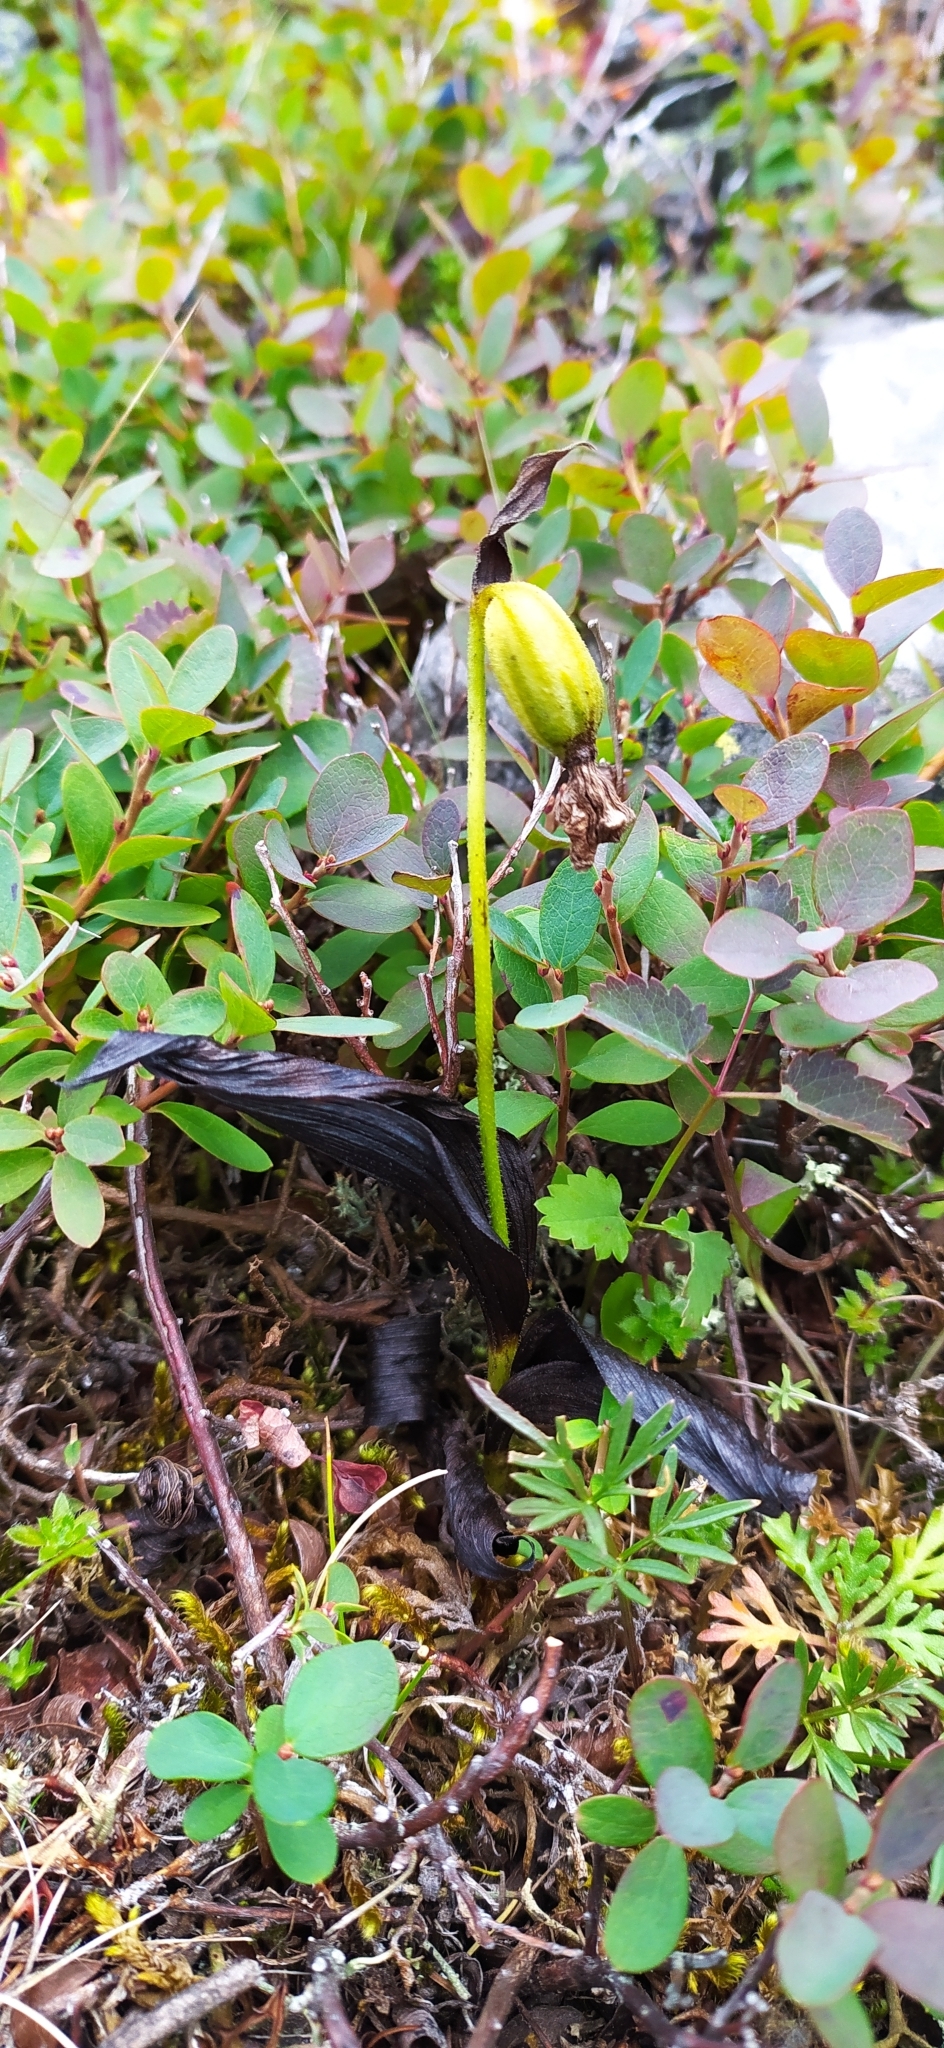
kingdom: Plantae
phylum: Tracheophyta
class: Liliopsida
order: Asparagales
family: Orchidaceae
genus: Cypripedium
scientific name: Cypripedium guttatum
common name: Pink lady slipper
